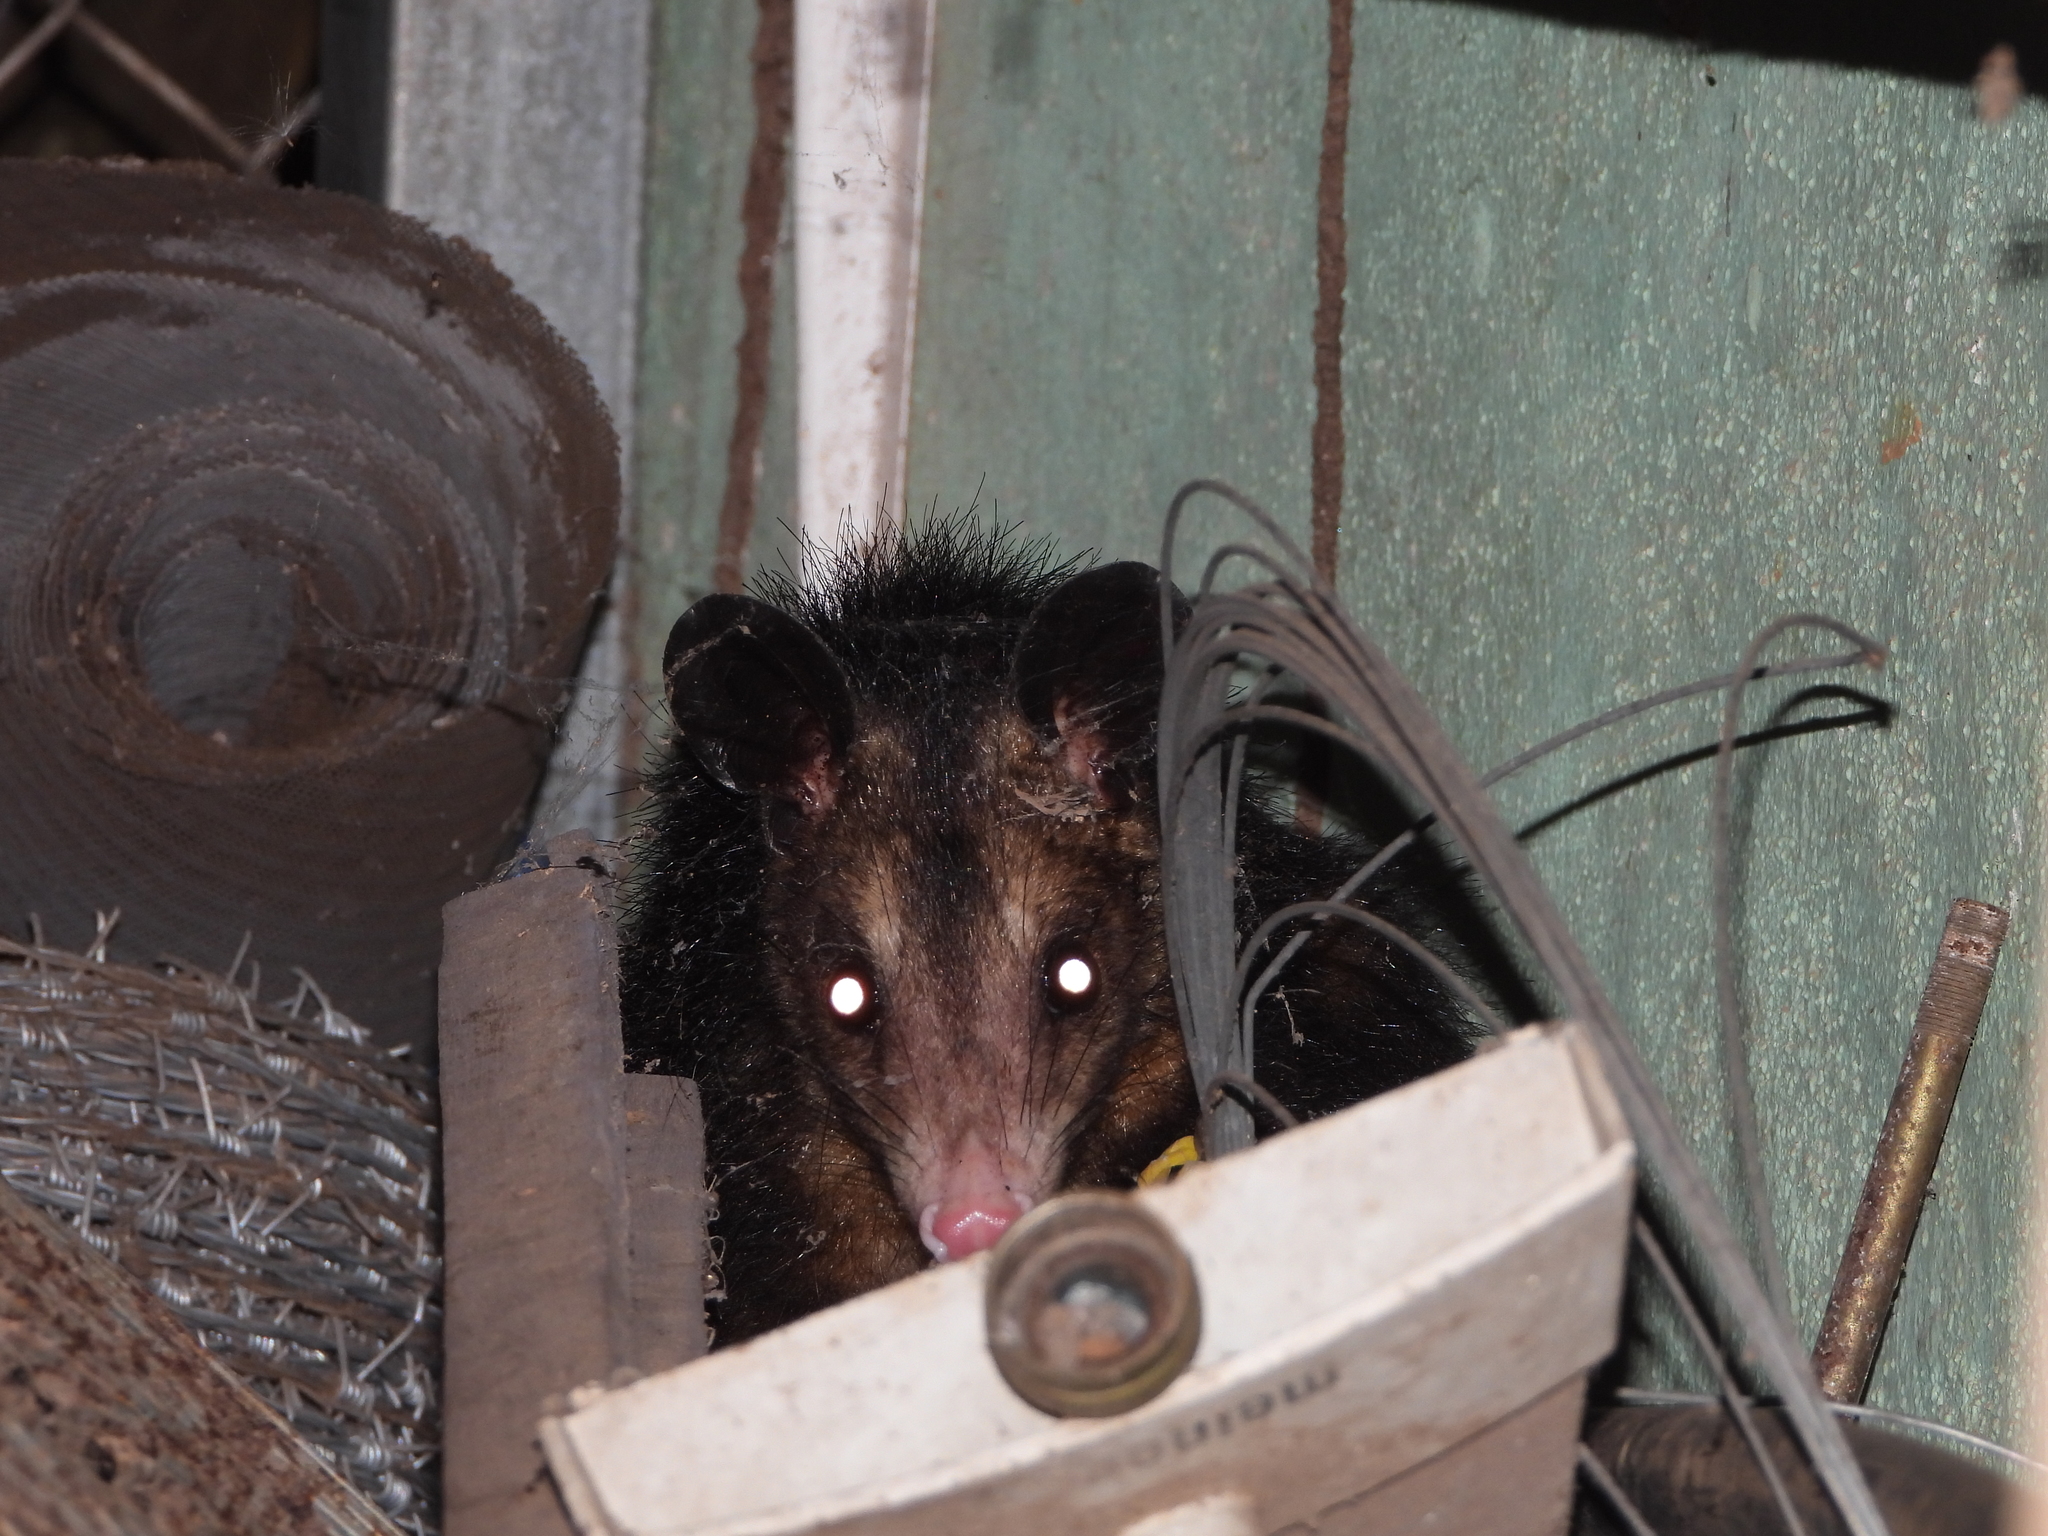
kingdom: Animalia
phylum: Chordata
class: Mammalia
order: Didelphimorphia
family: Didelphidae
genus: Didelphis
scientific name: Didelphis marsupialis
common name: Common opossum
